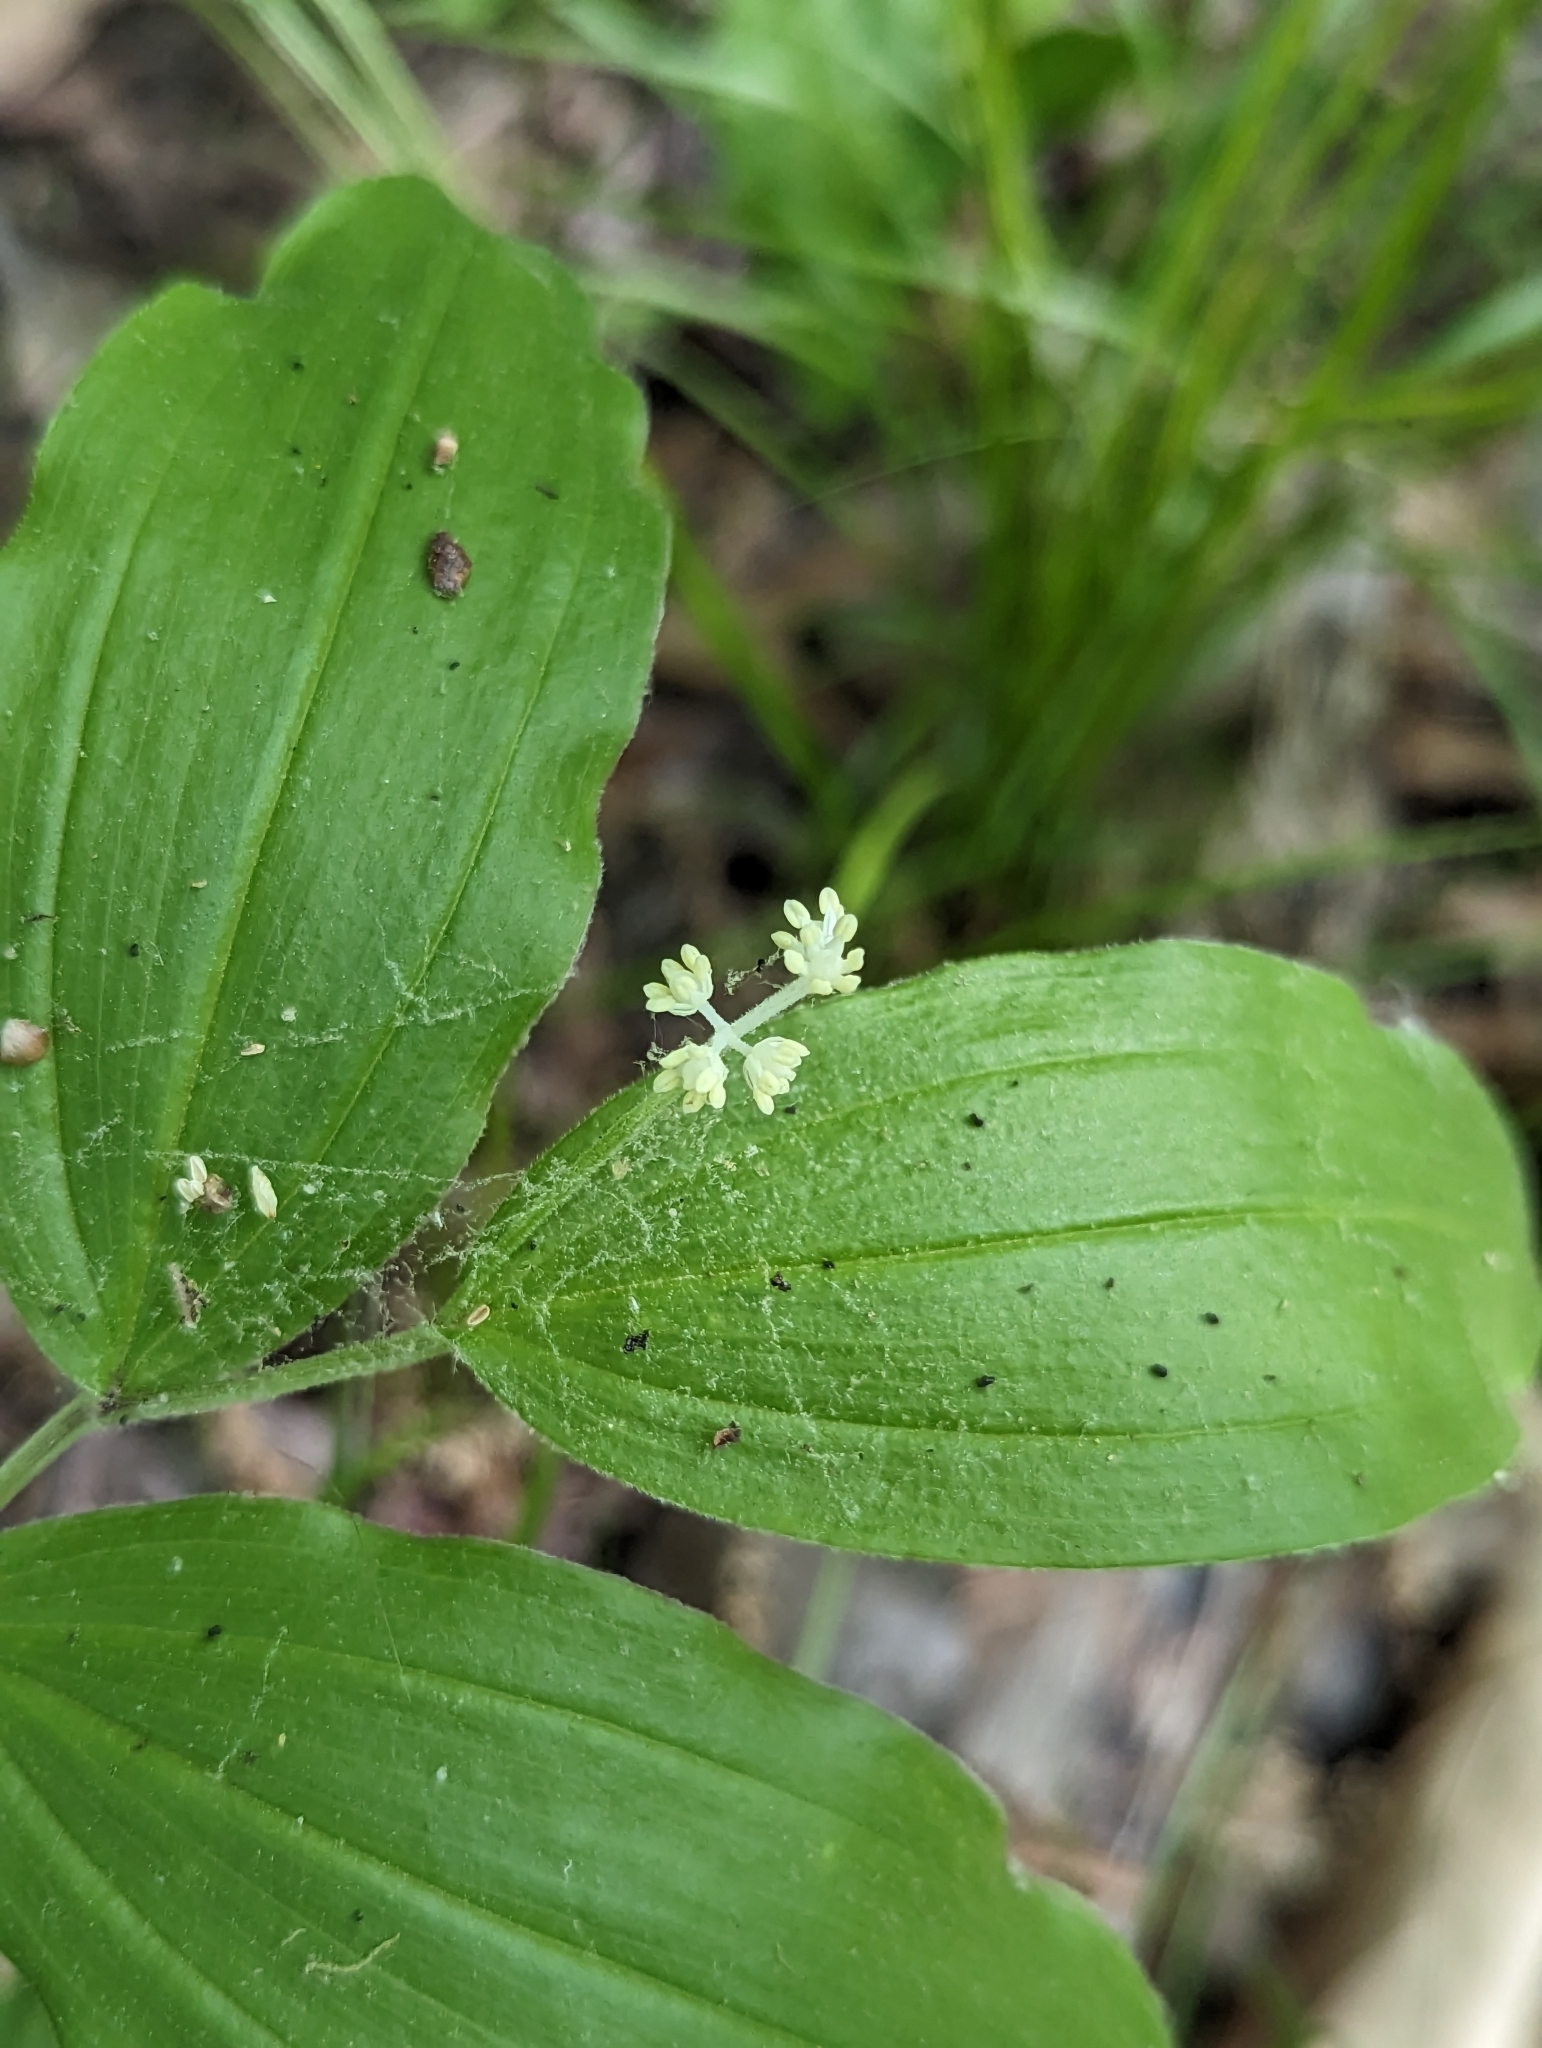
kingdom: Plantae
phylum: Tracheophyta
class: Liliopsida
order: Asparagales
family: Asparagaceae
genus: Maianthemum
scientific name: Maianthemum racemosum
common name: False spikenard
